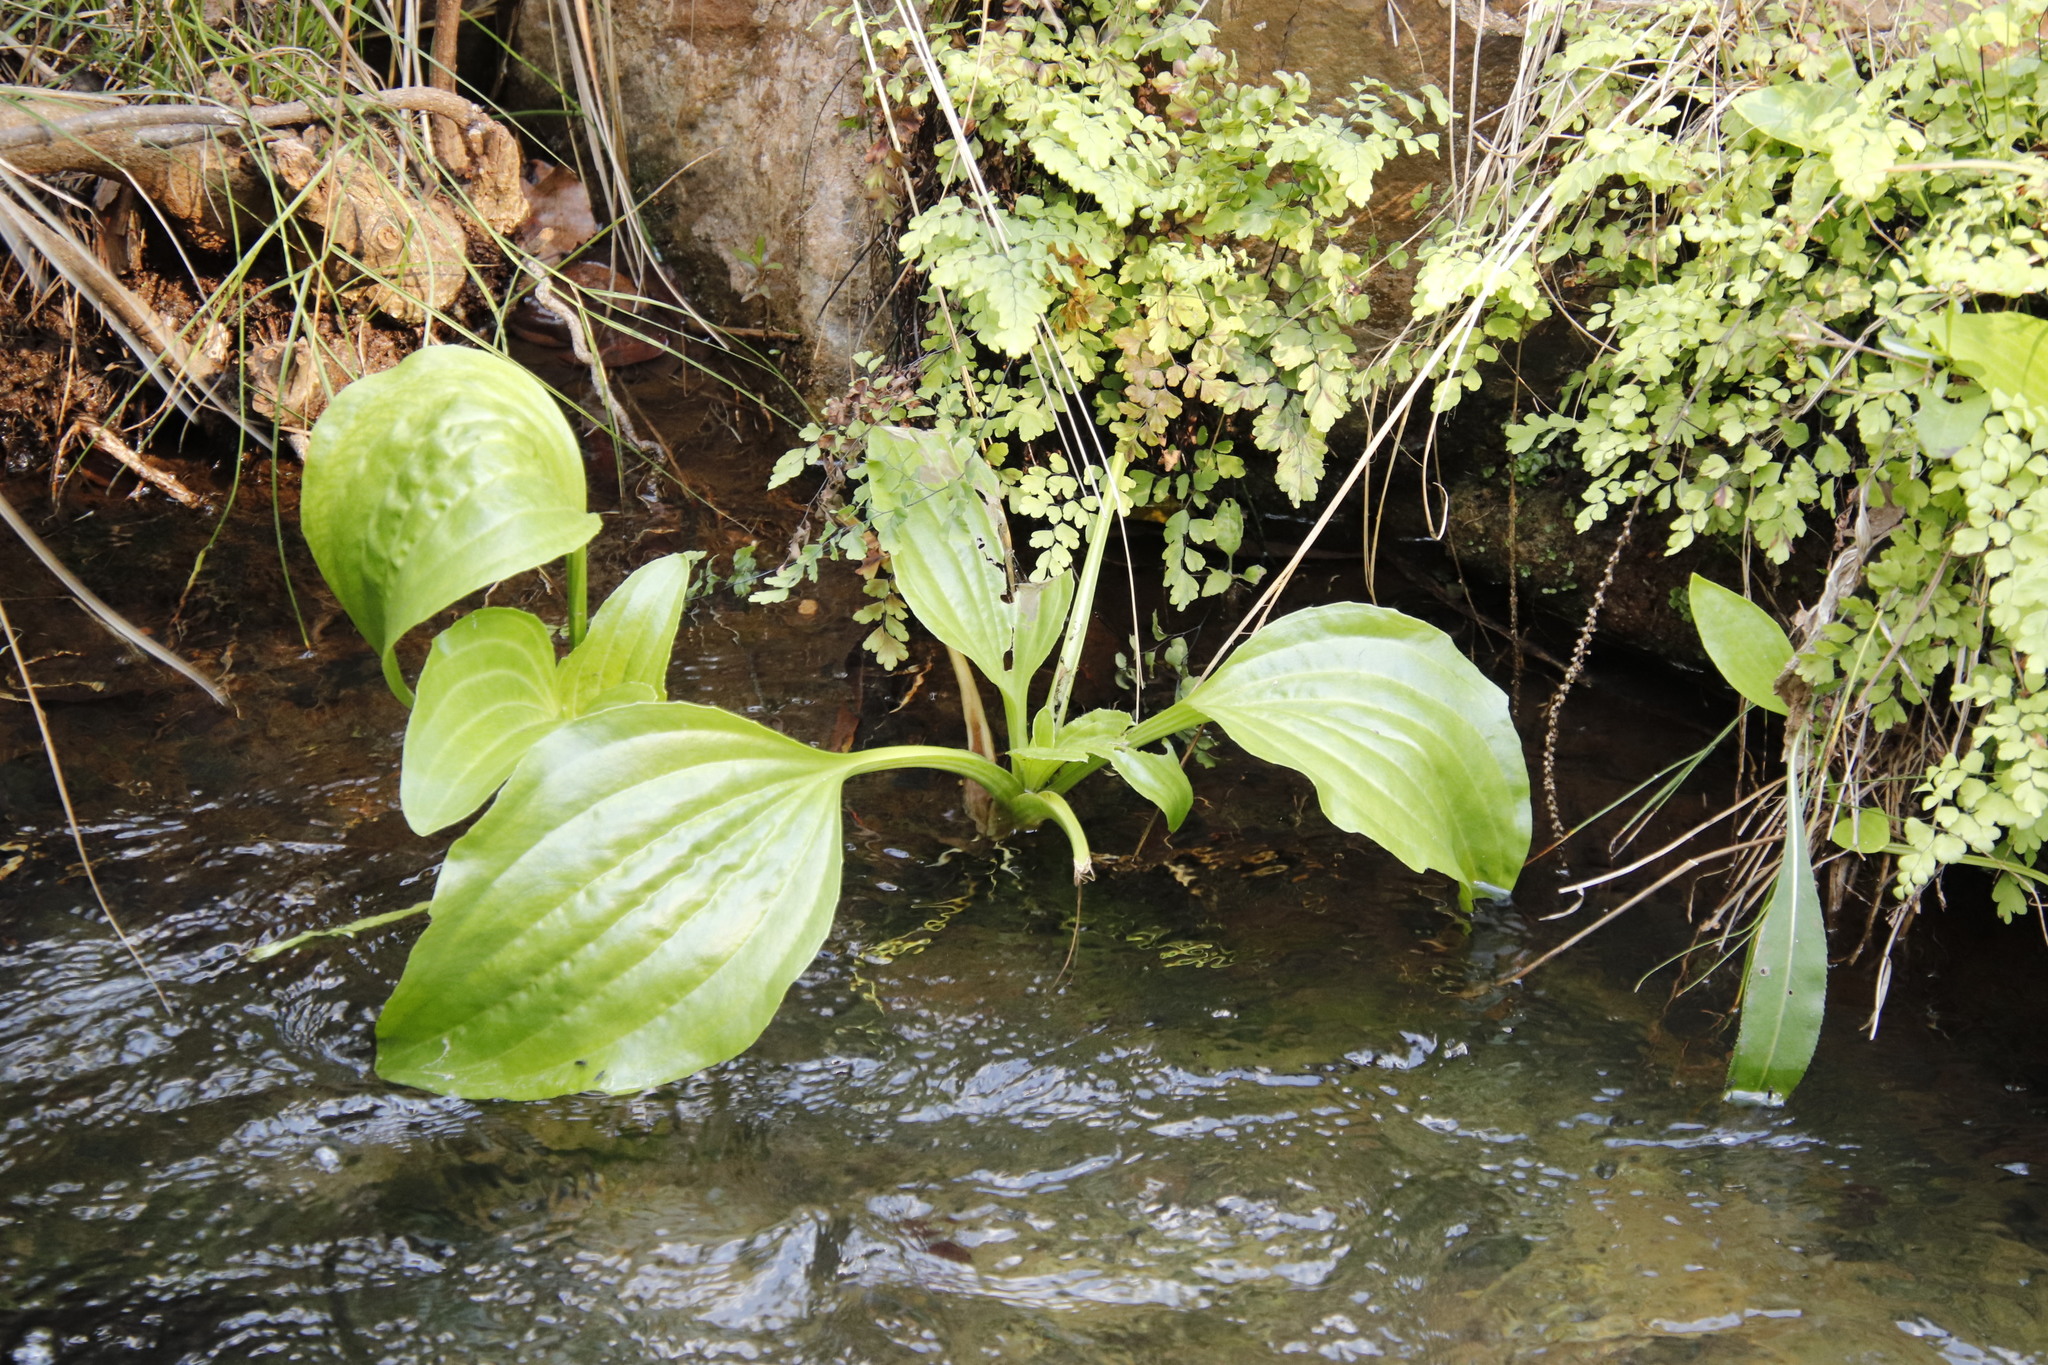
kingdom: Plantae
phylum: Tracheophyta
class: Magnoliopsida
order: Lamiales
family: Plantaginaceae
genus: Plantago
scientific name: Plantago major
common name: Common plantain
